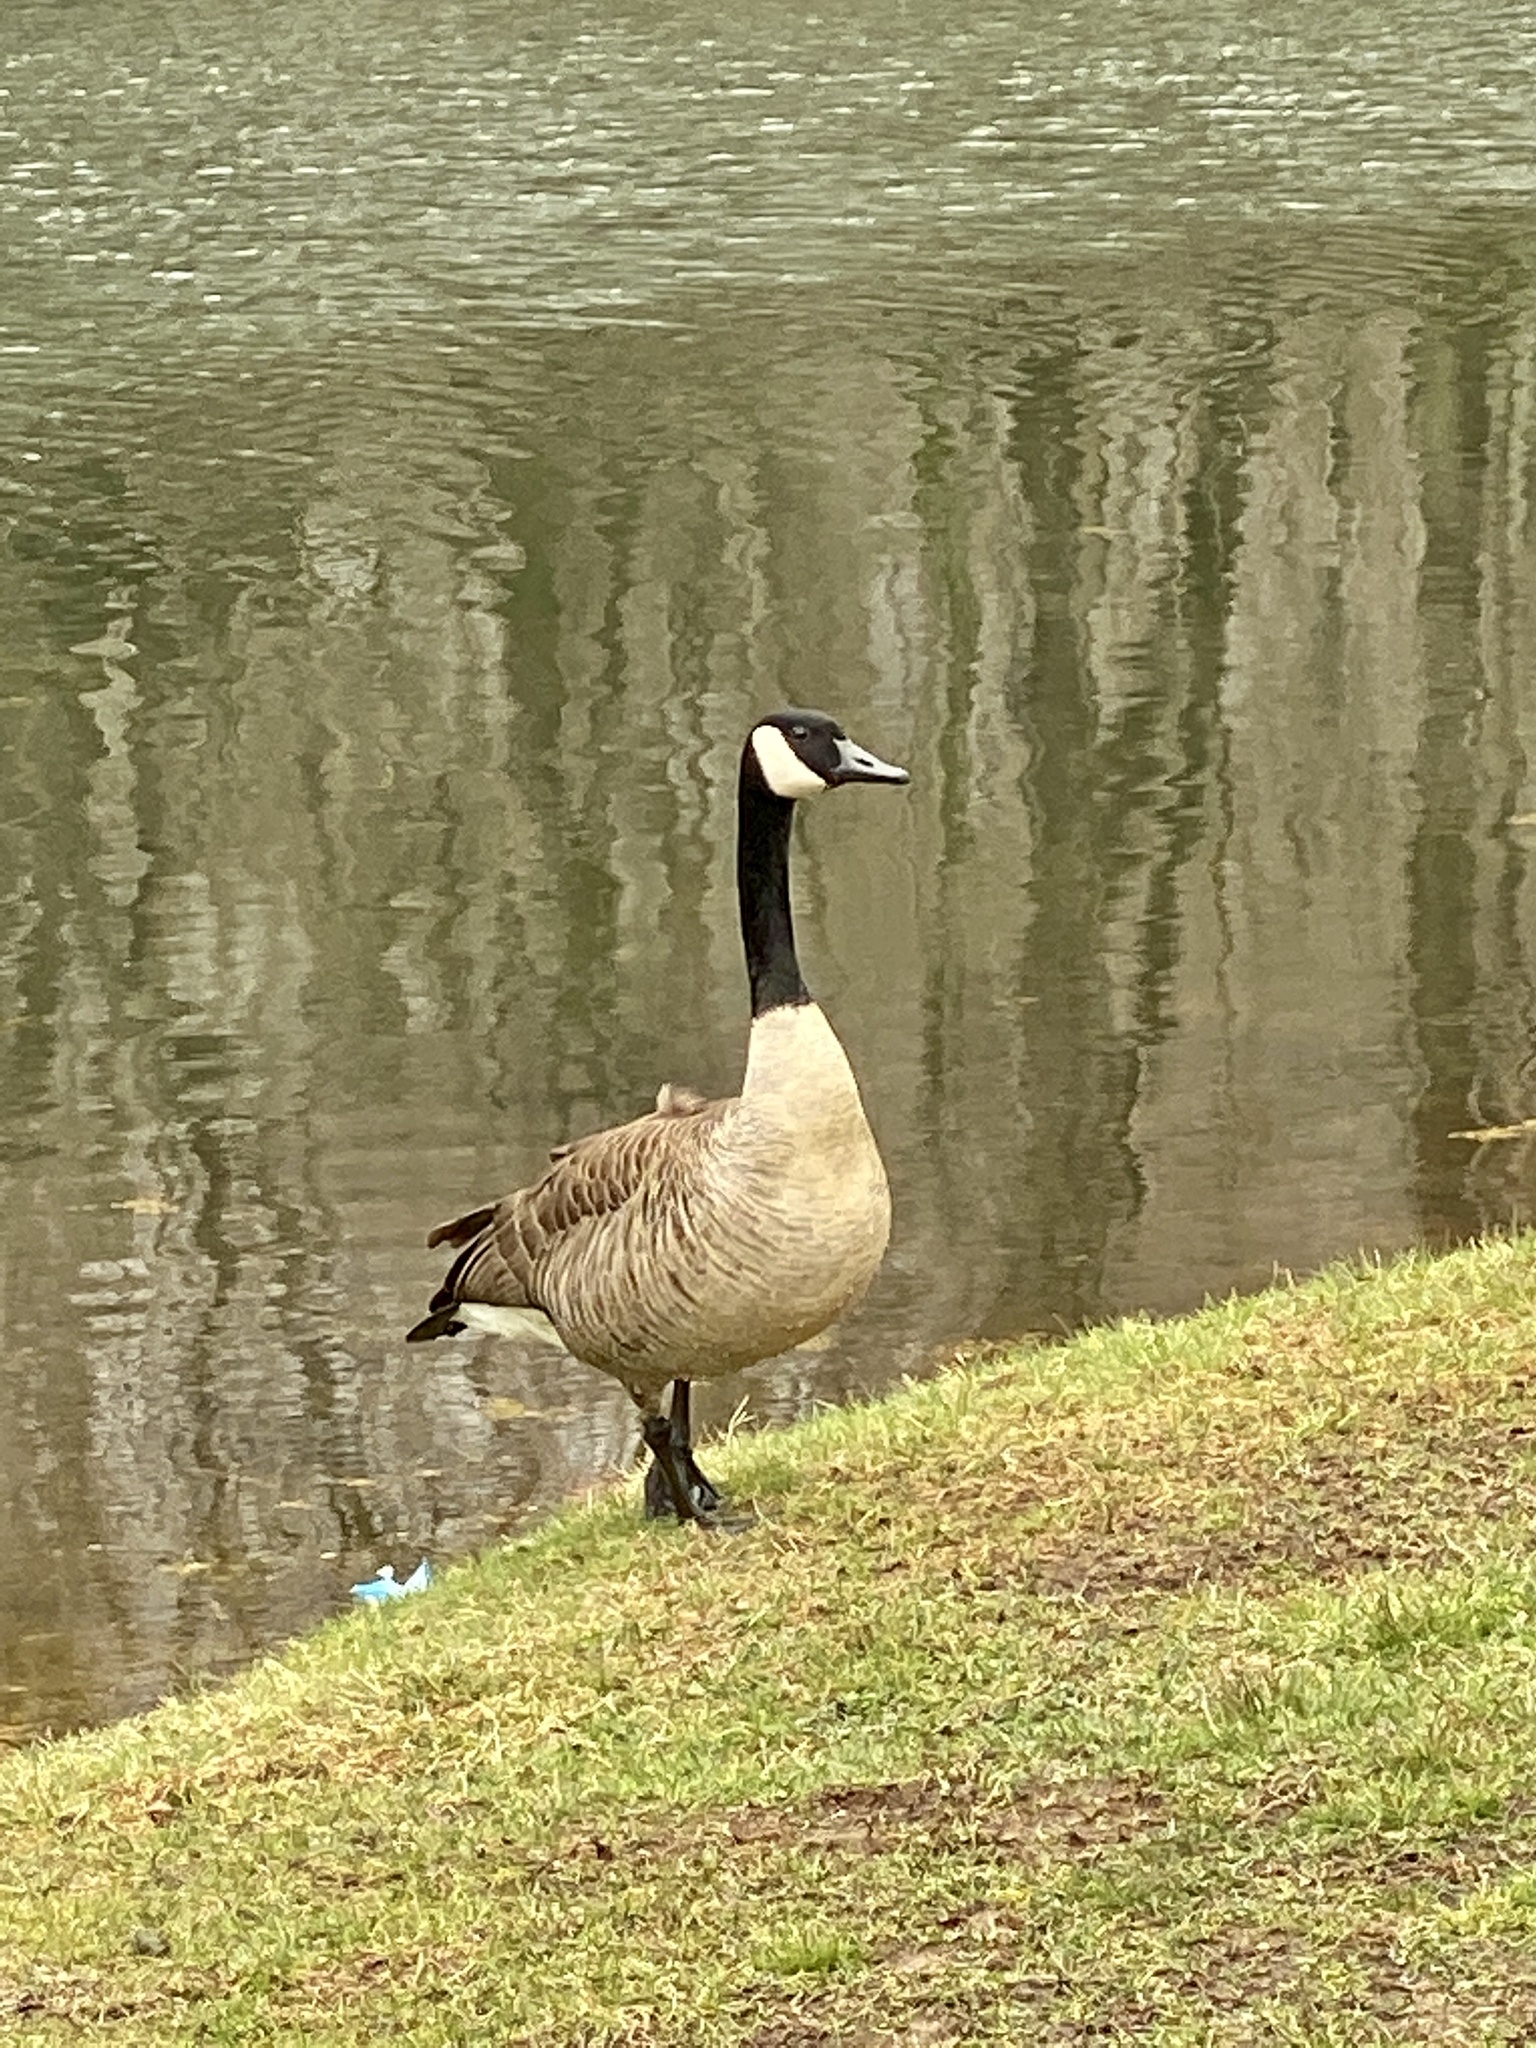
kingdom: Animalia
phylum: Chordata
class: Aves
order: Anseriformes
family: Anatidae
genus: Branta
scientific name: Branta canadensis
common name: Canada goose
